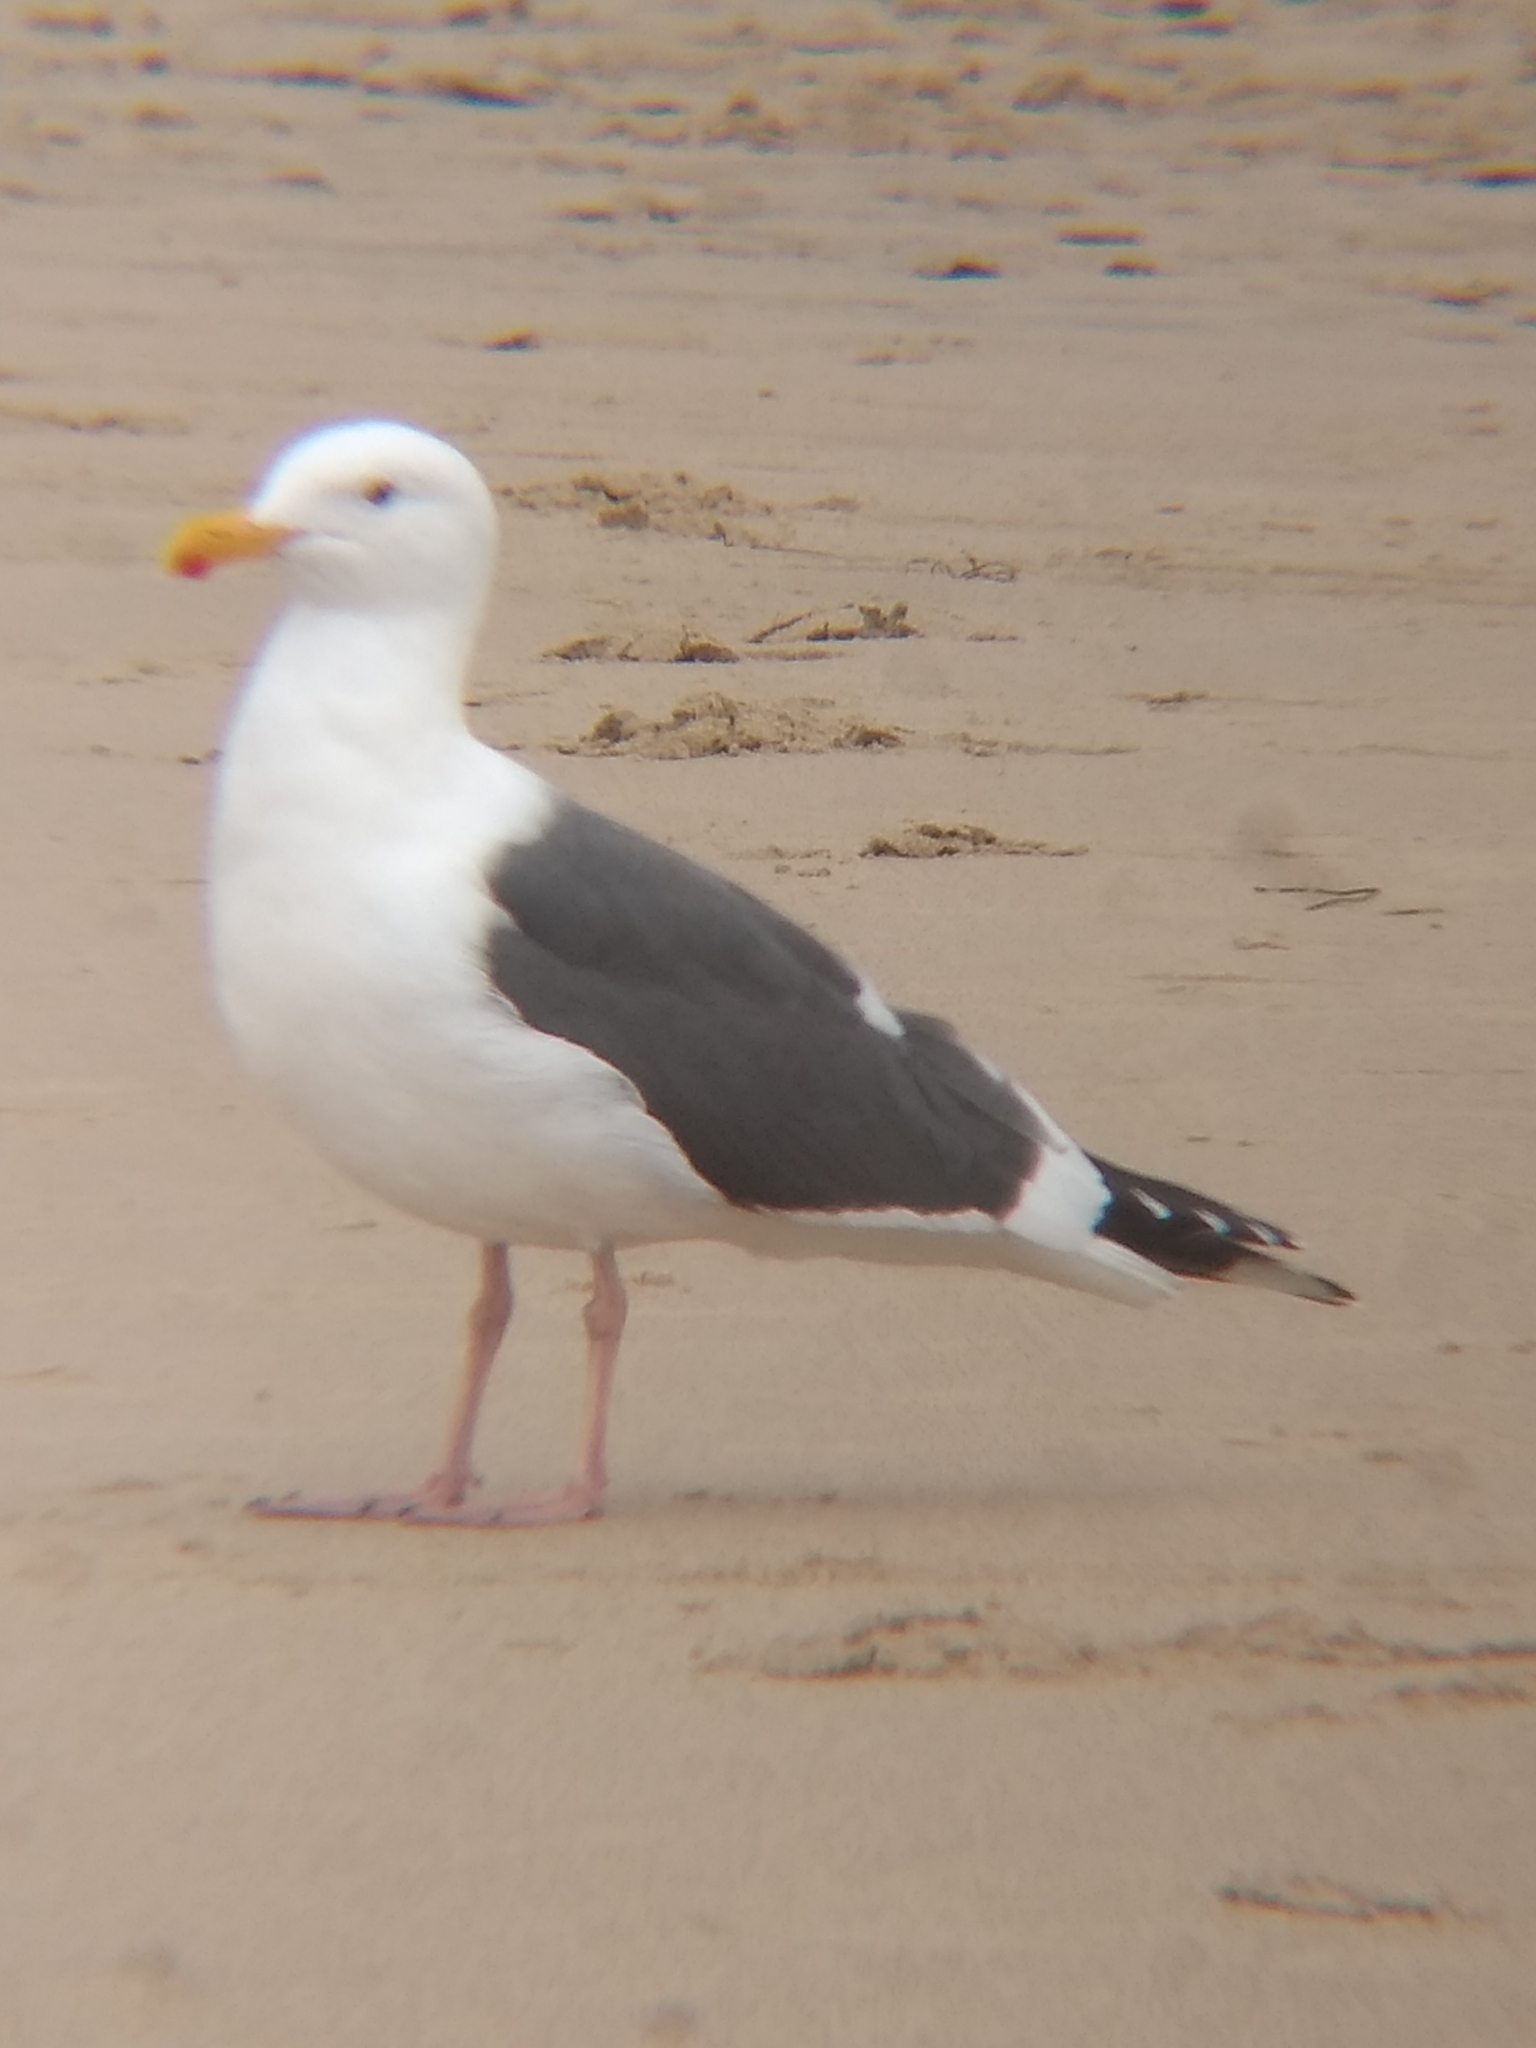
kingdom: Animalia
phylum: Chordata
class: Aves
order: Charadriiformes
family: Laridae
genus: Larus
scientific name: Larus occidentalis
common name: Western gull
